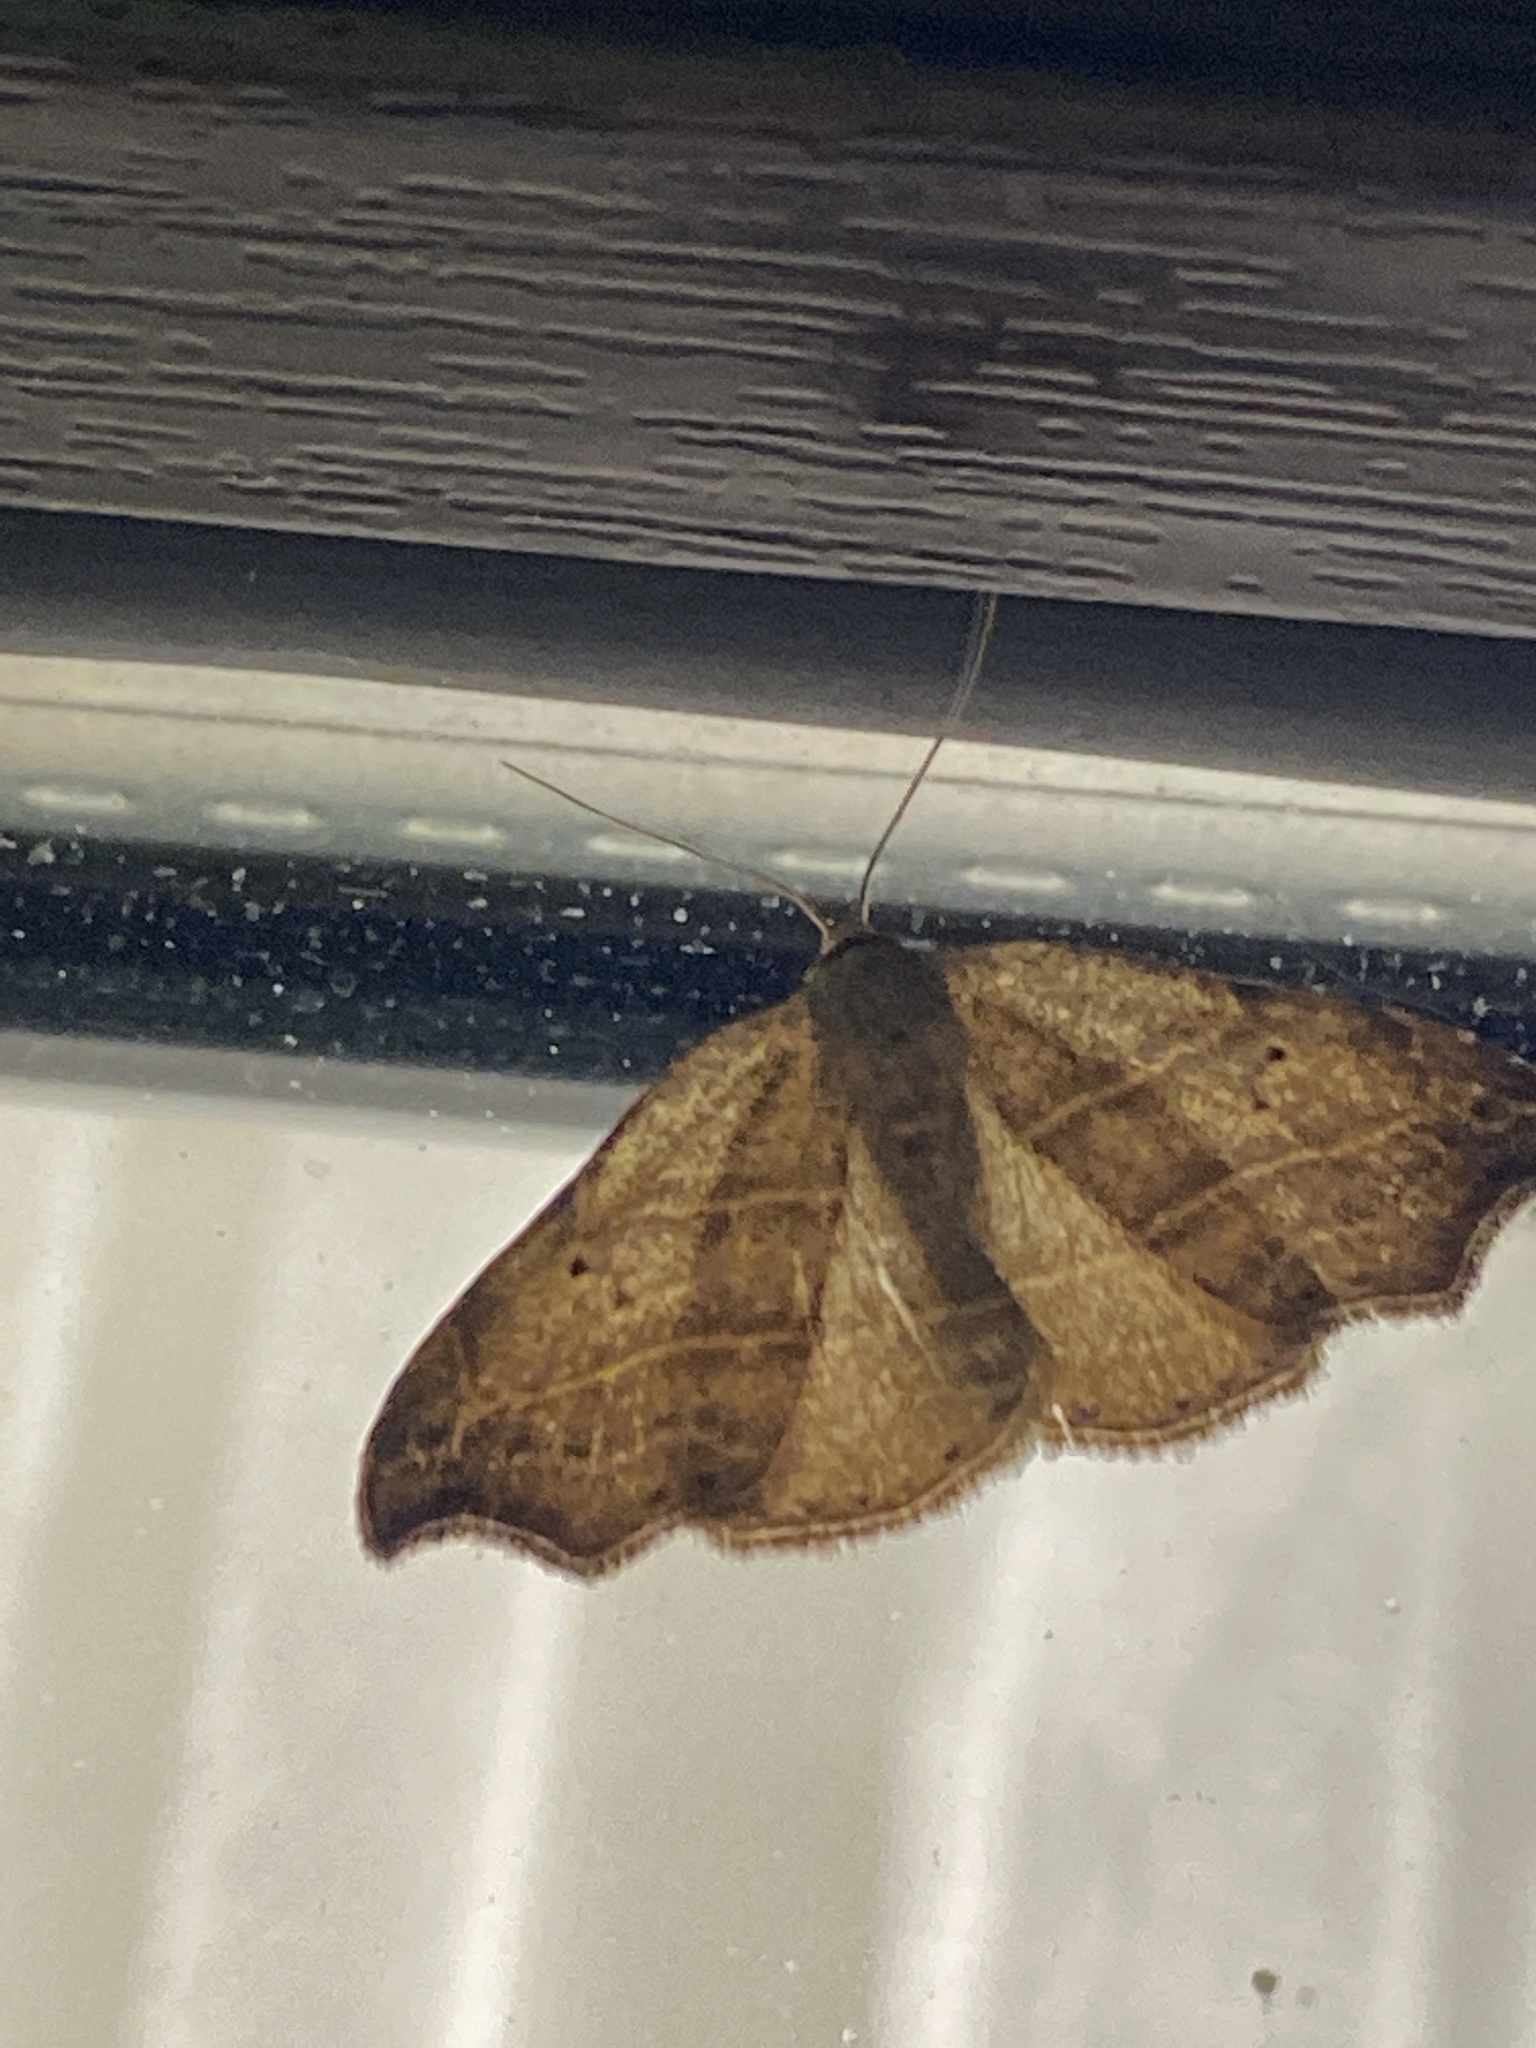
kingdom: Animalia
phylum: Arthropoda
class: Insecta
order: Lepidoptera
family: Erebidae
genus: Laspeyria
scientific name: Laspeyria flexula
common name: Beautiful hook-tip
